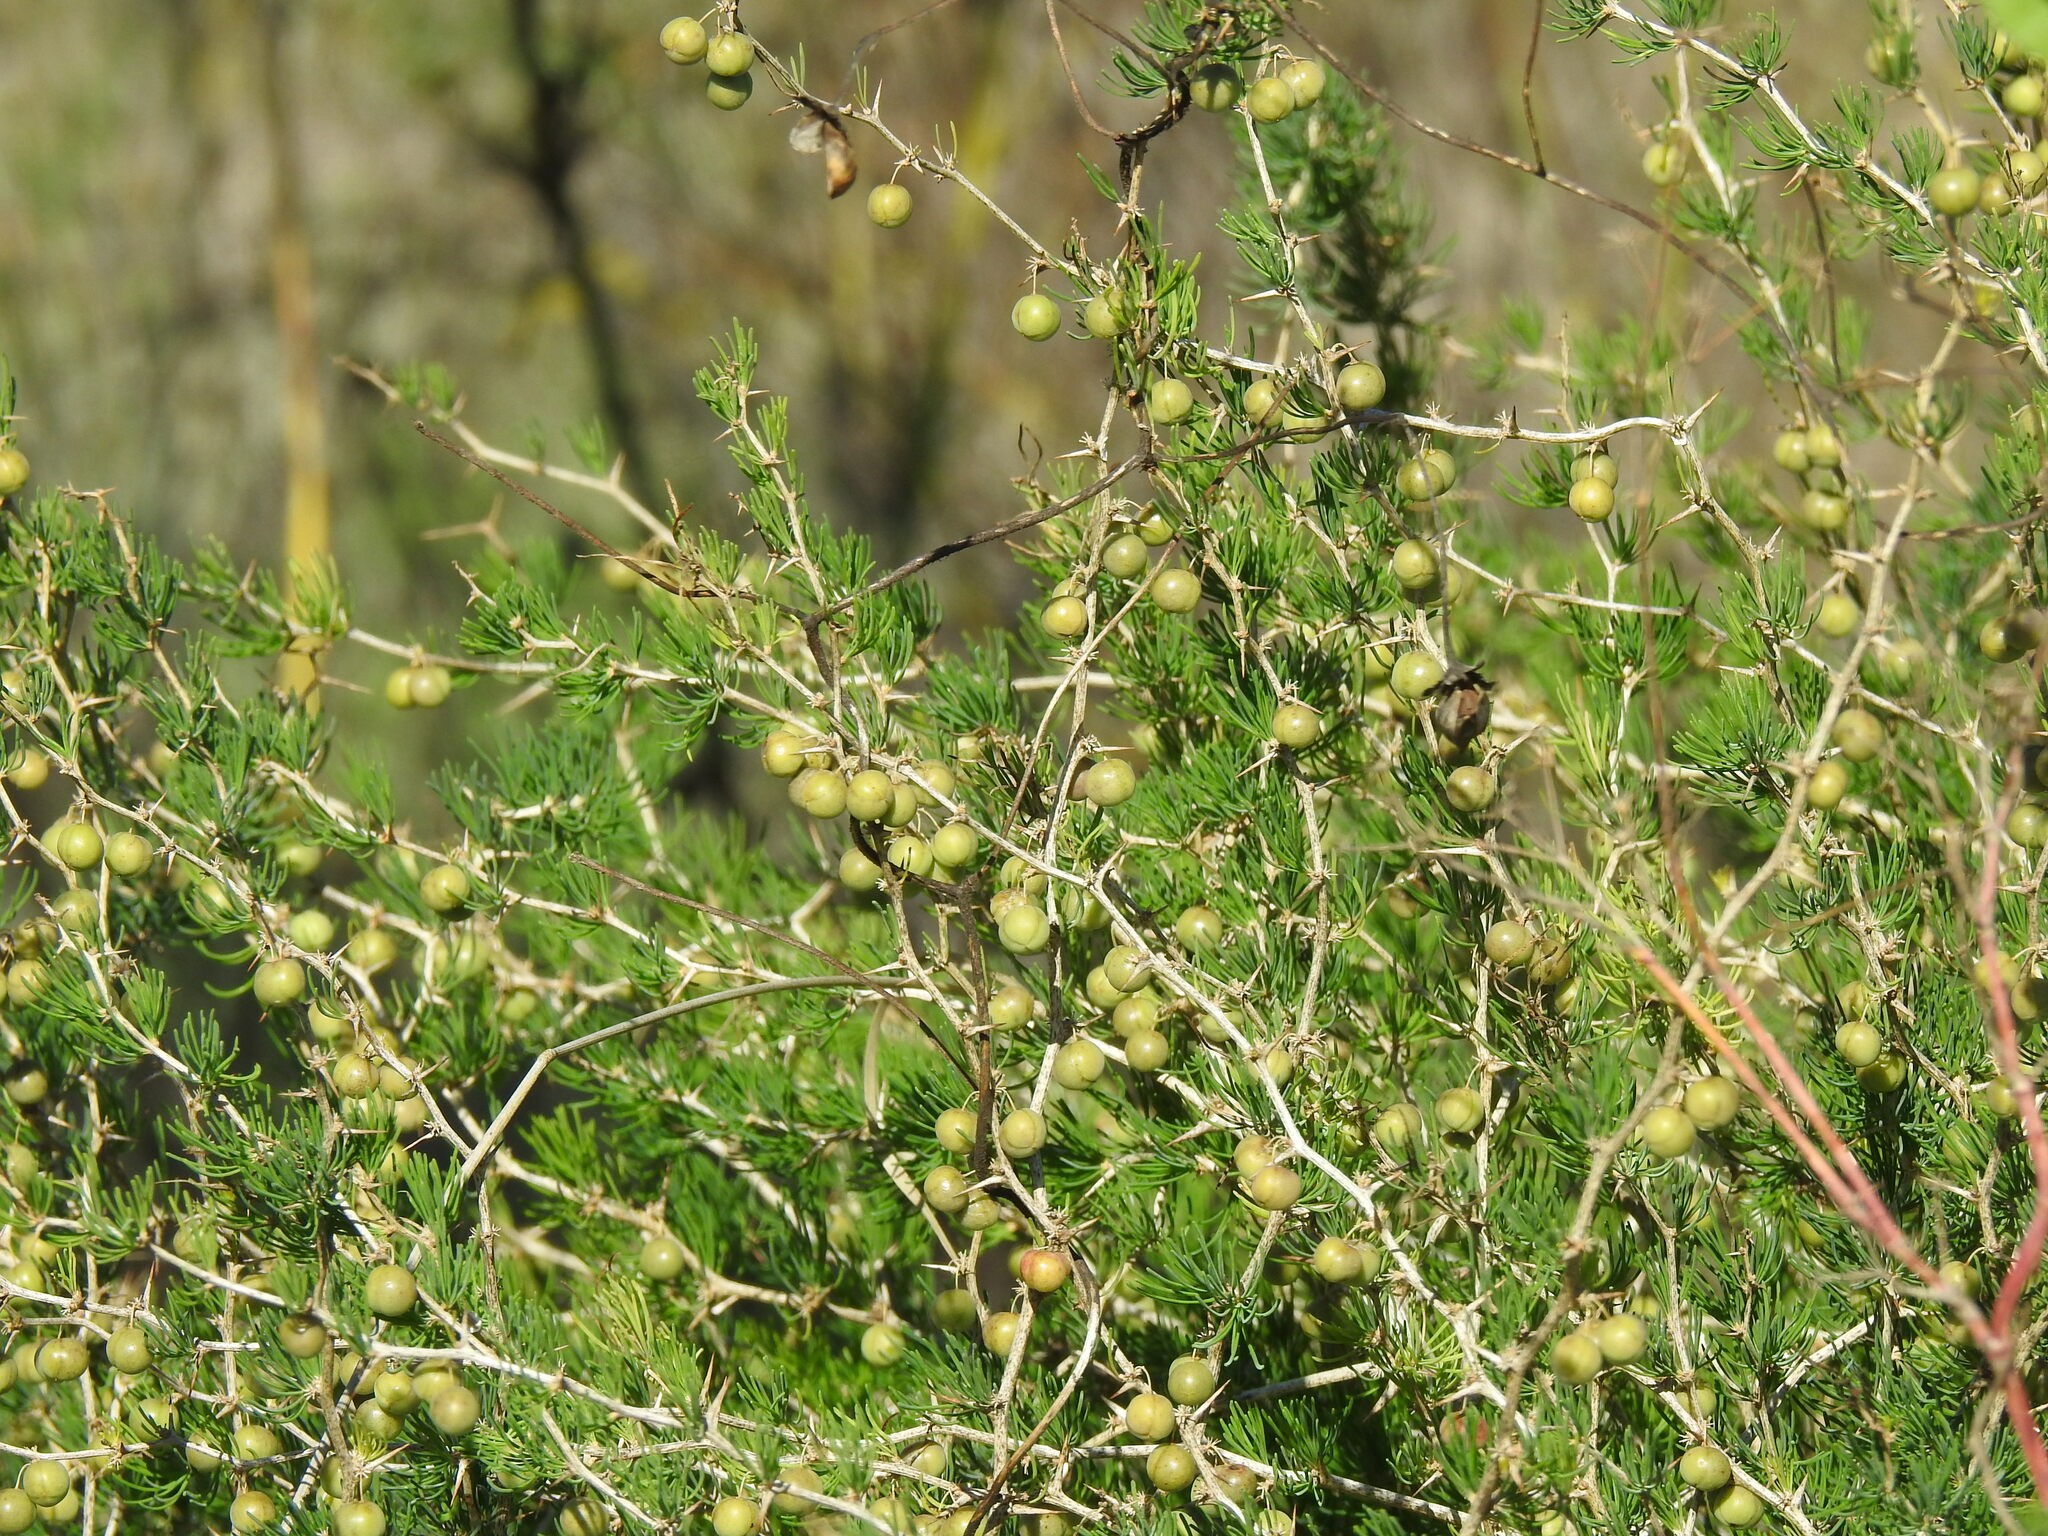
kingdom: Plantae
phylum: Tracheophyta
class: Liliopsida
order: Asparagales
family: Asparagaceae
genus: Asparagus
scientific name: Asparagus albus
